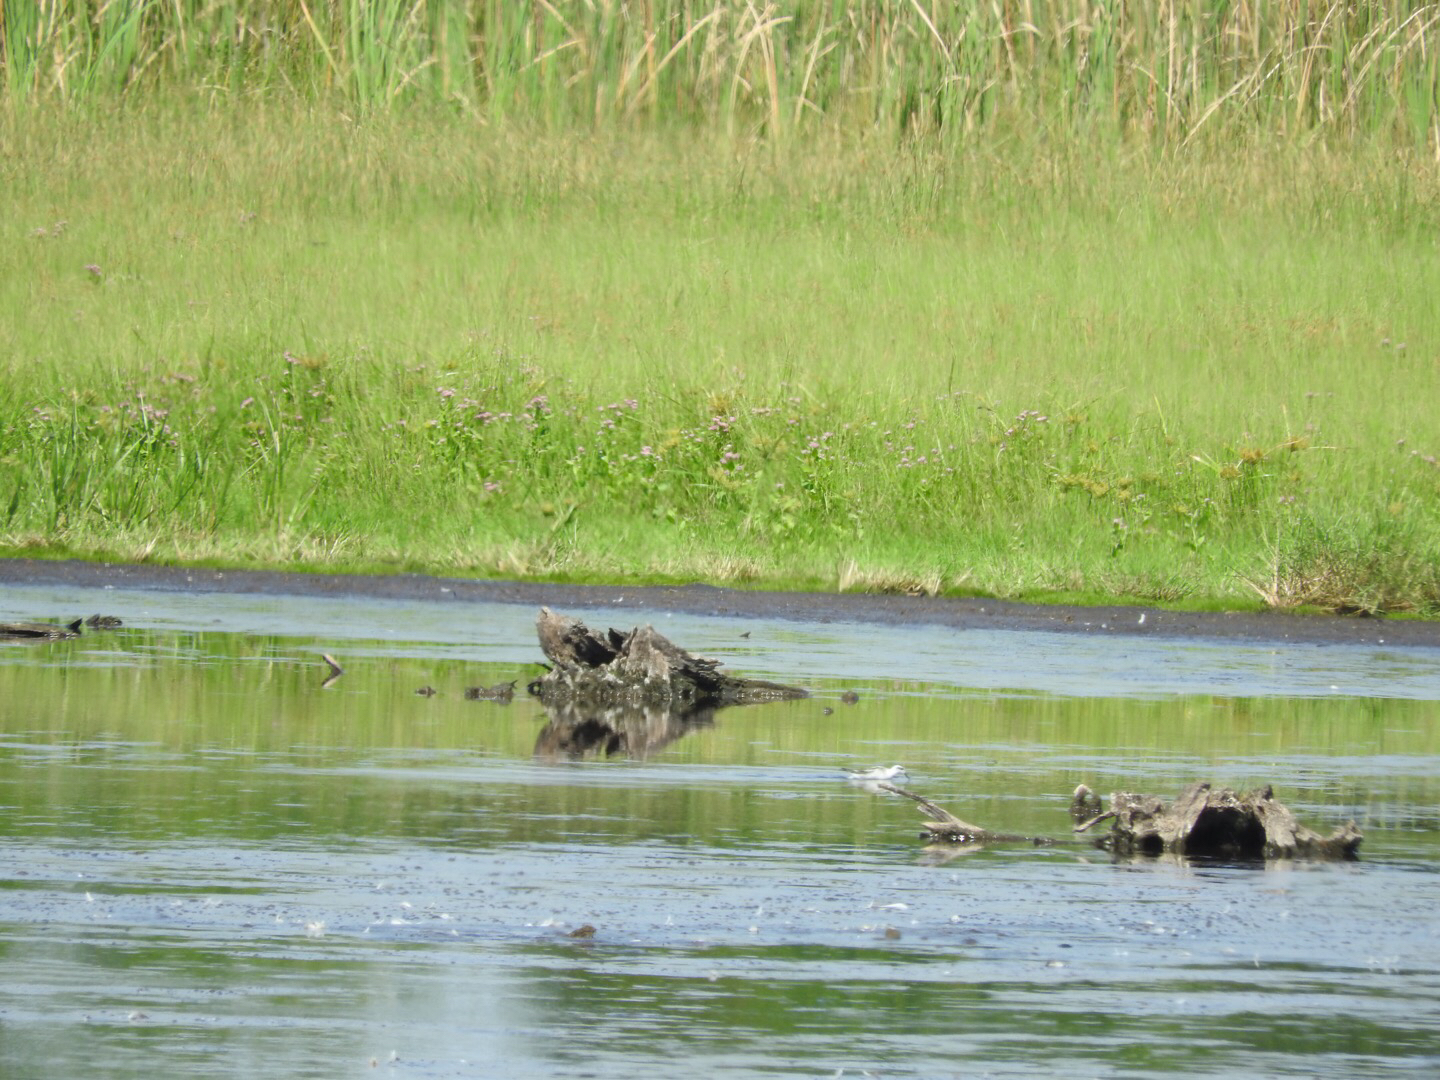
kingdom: Animalia
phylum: Chordata
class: Aves
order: Charadriiformes
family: Scolopacidae
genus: Phalaropus
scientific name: Phalaropus lobatus
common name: Red-necked phalarope
